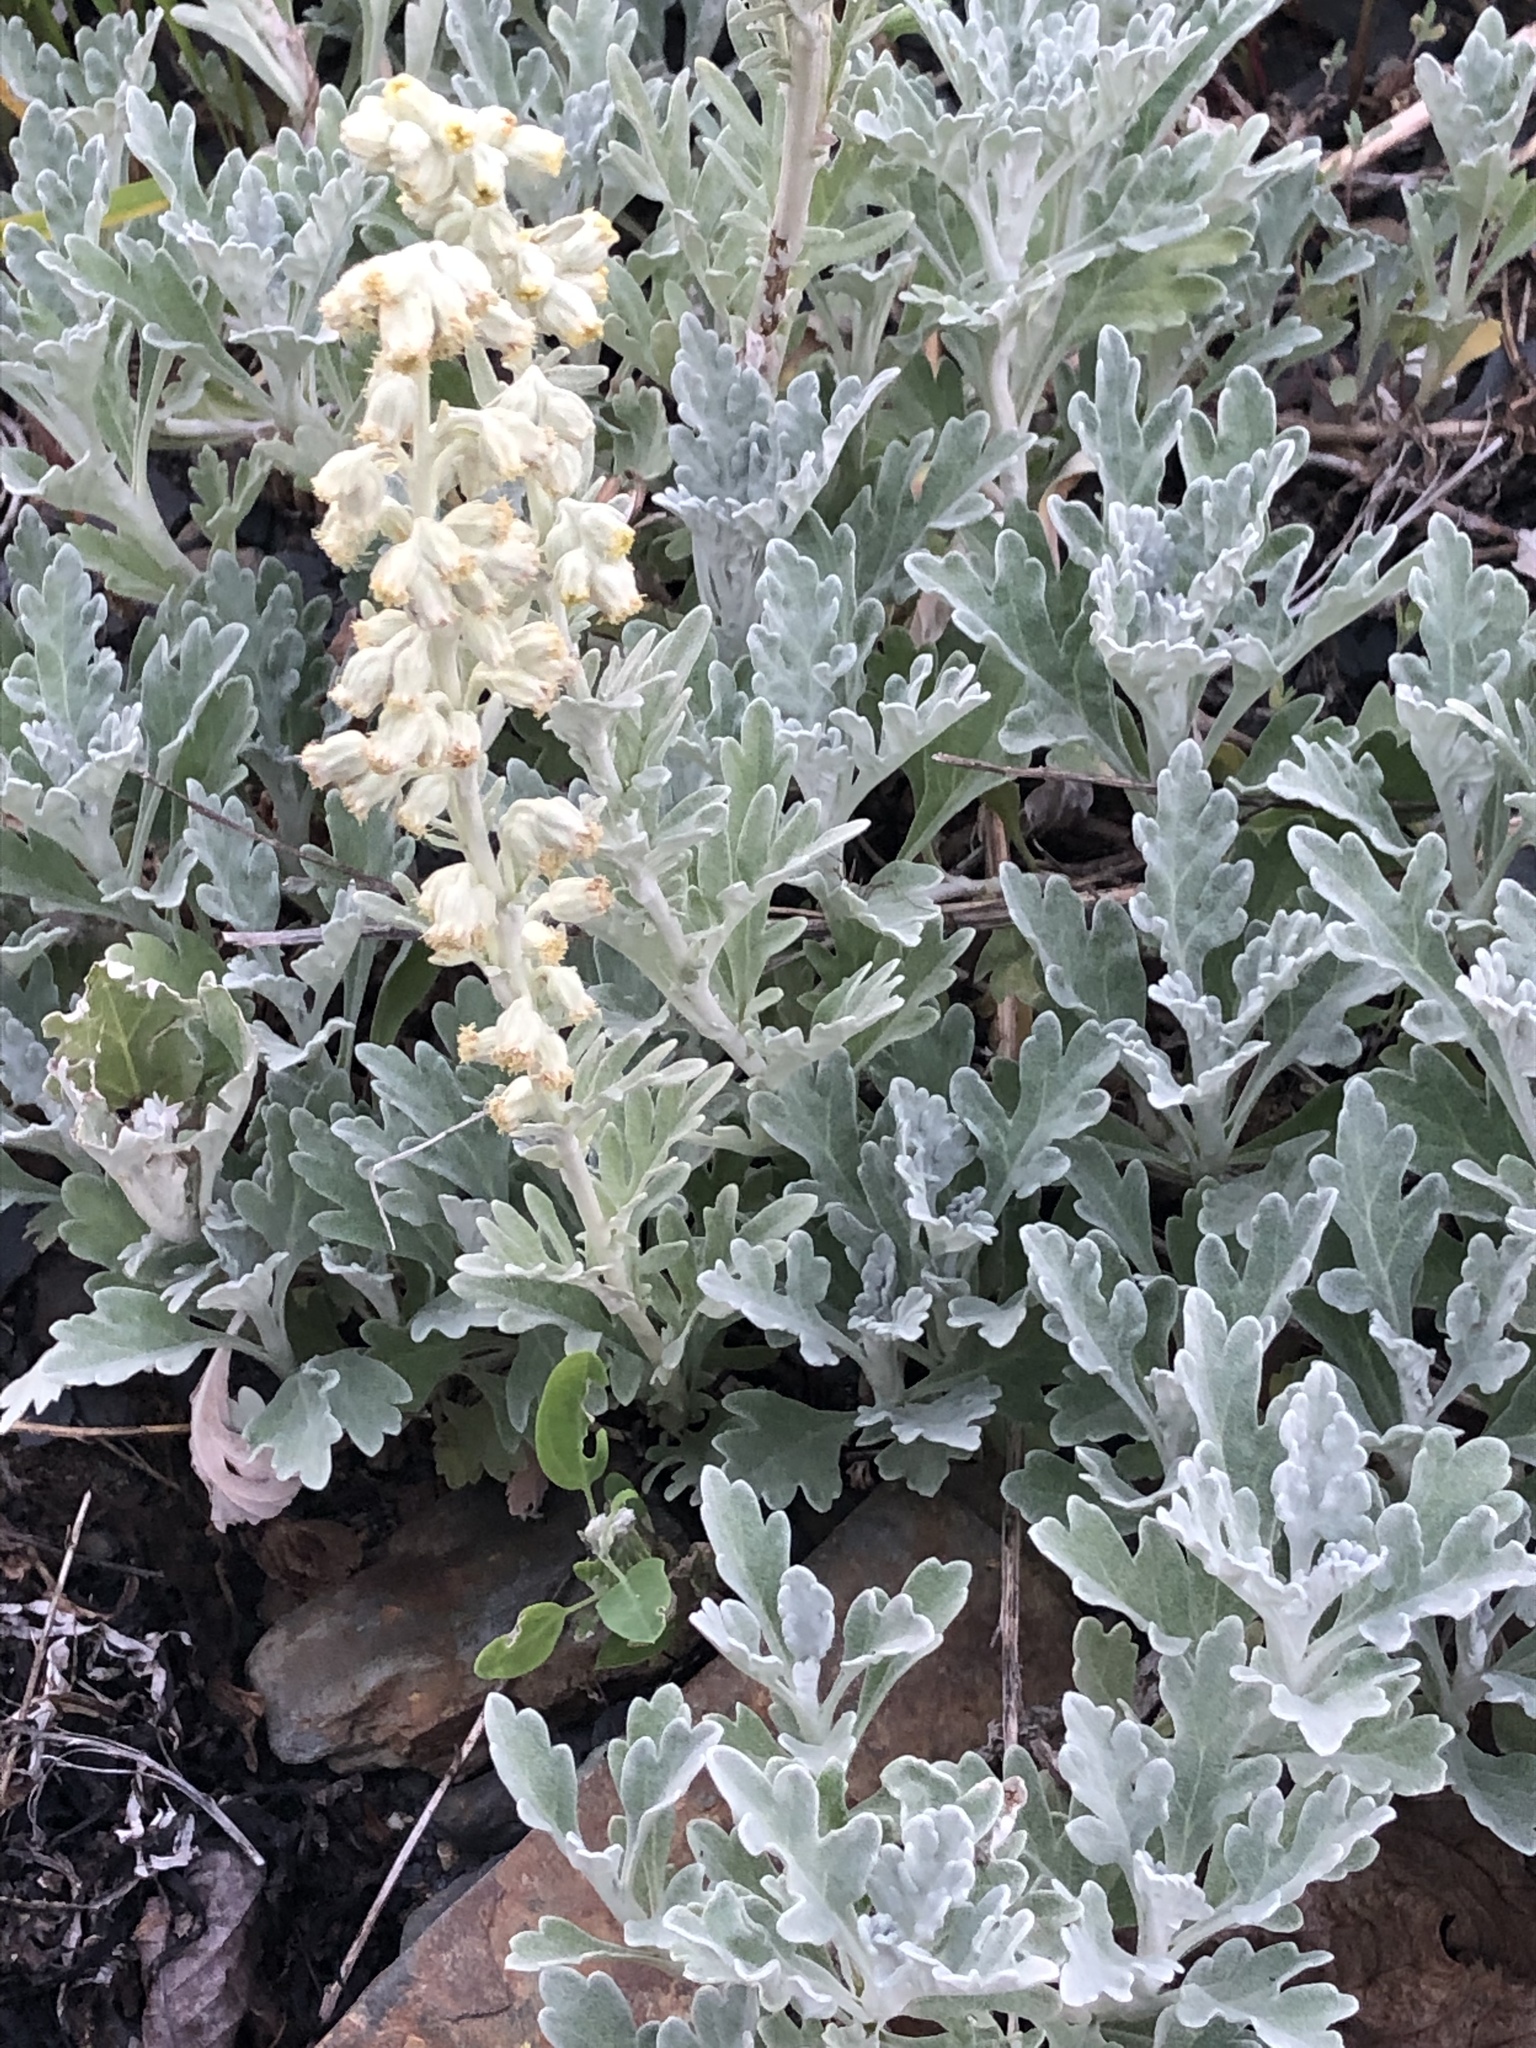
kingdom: Plantae
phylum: Tracheophyta
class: Magnoliopsida
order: Asterales
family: Asteraceae
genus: Artemisia
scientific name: Artemisia stelleriana
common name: Beach wormwood
